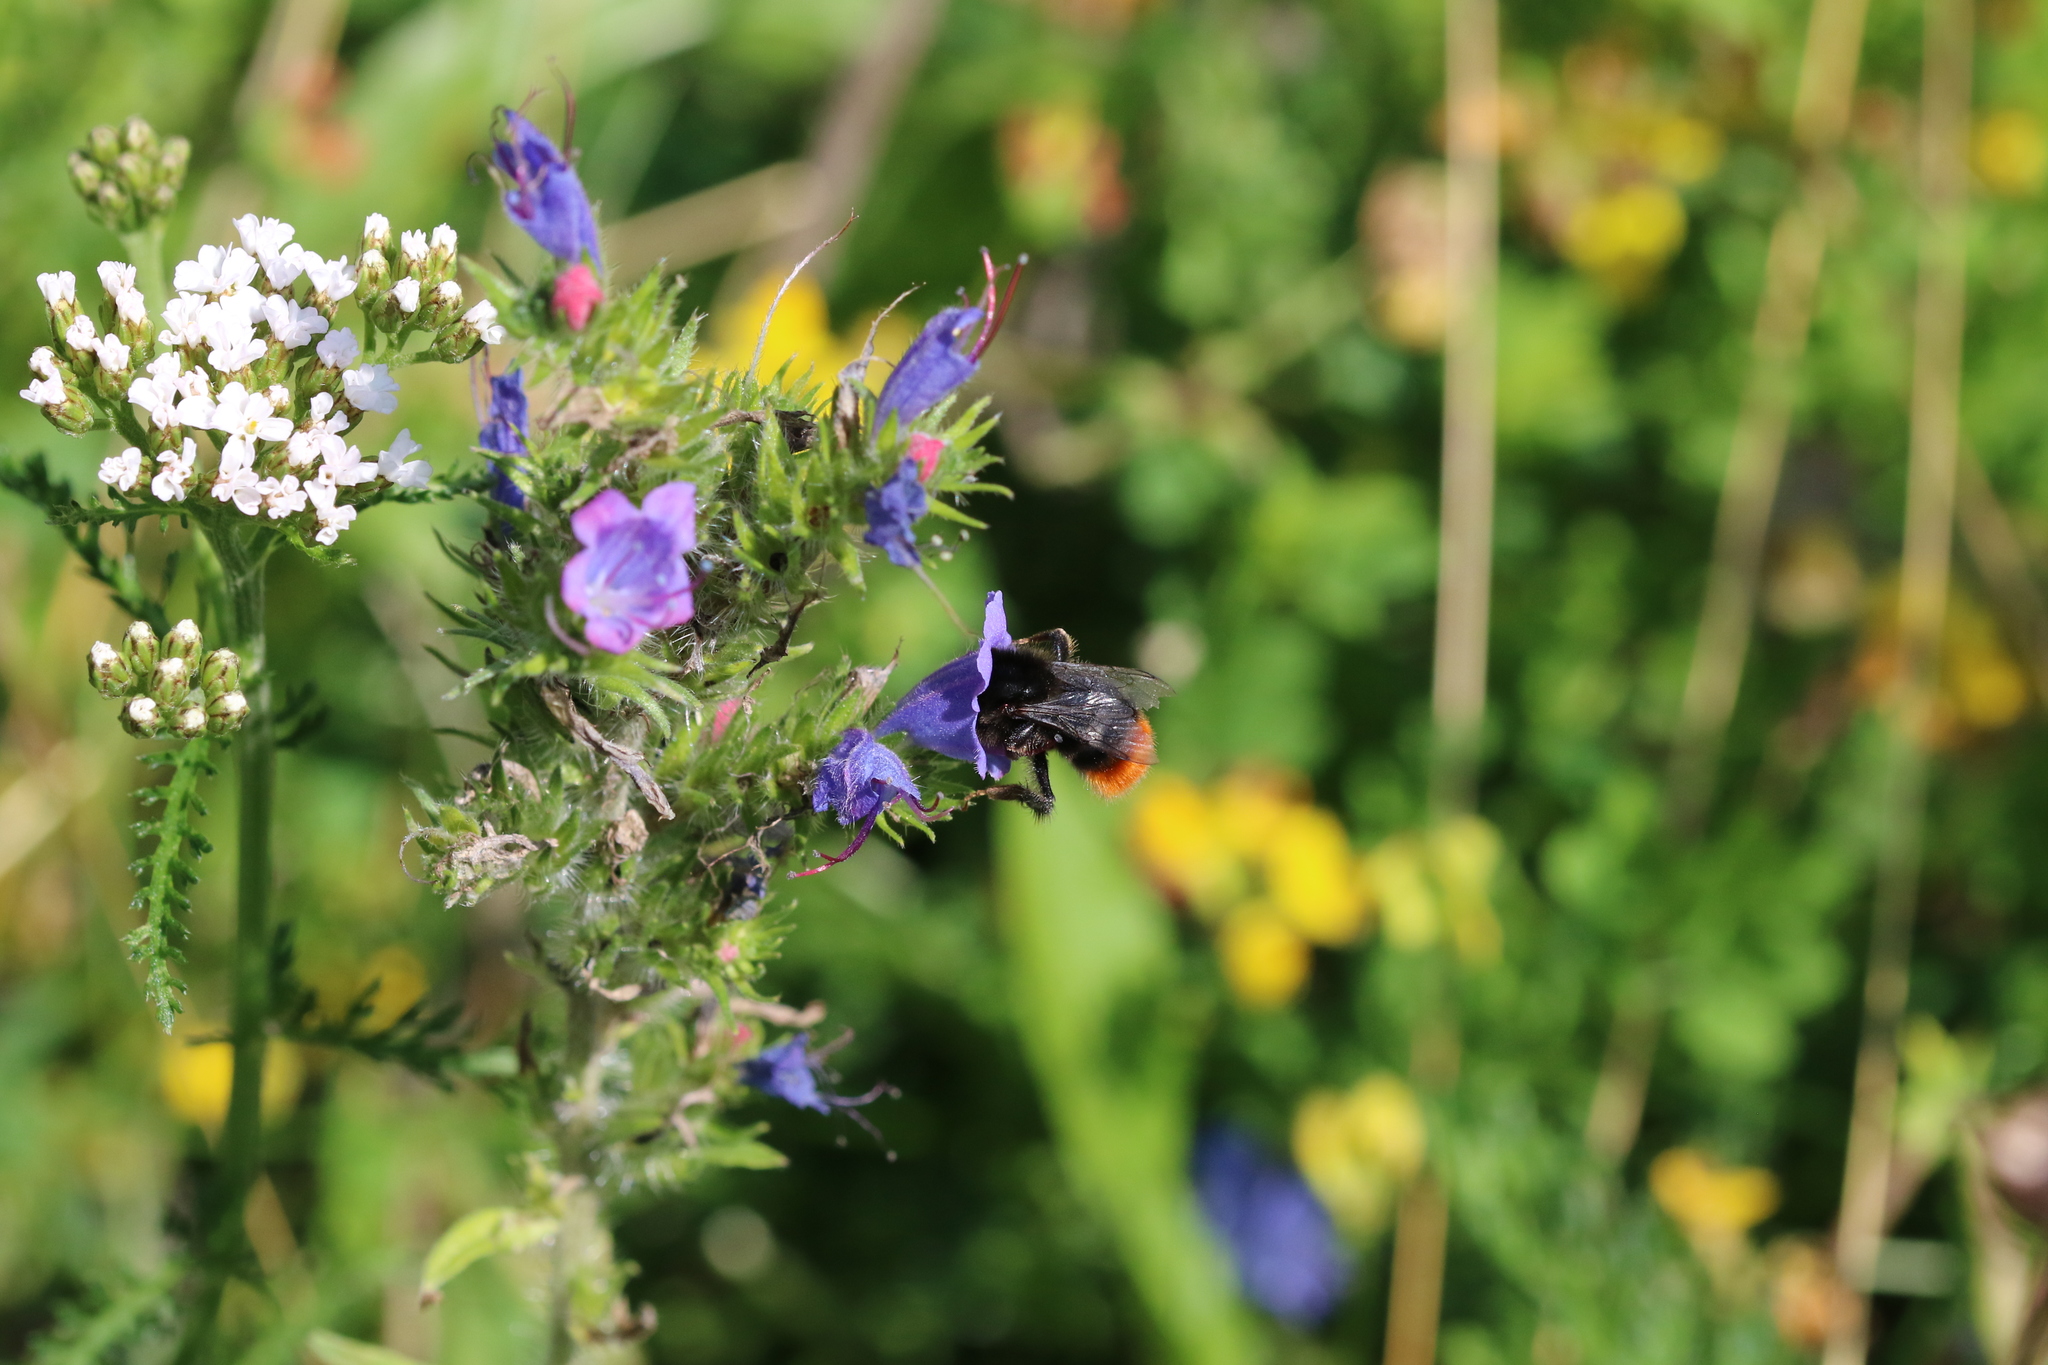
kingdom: Animalia
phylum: Arthropoda
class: Insecta
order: Hymenoptera
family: Apidae
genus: Bombus
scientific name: Bombus lapidarius
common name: Large red-tailed humble-bee
